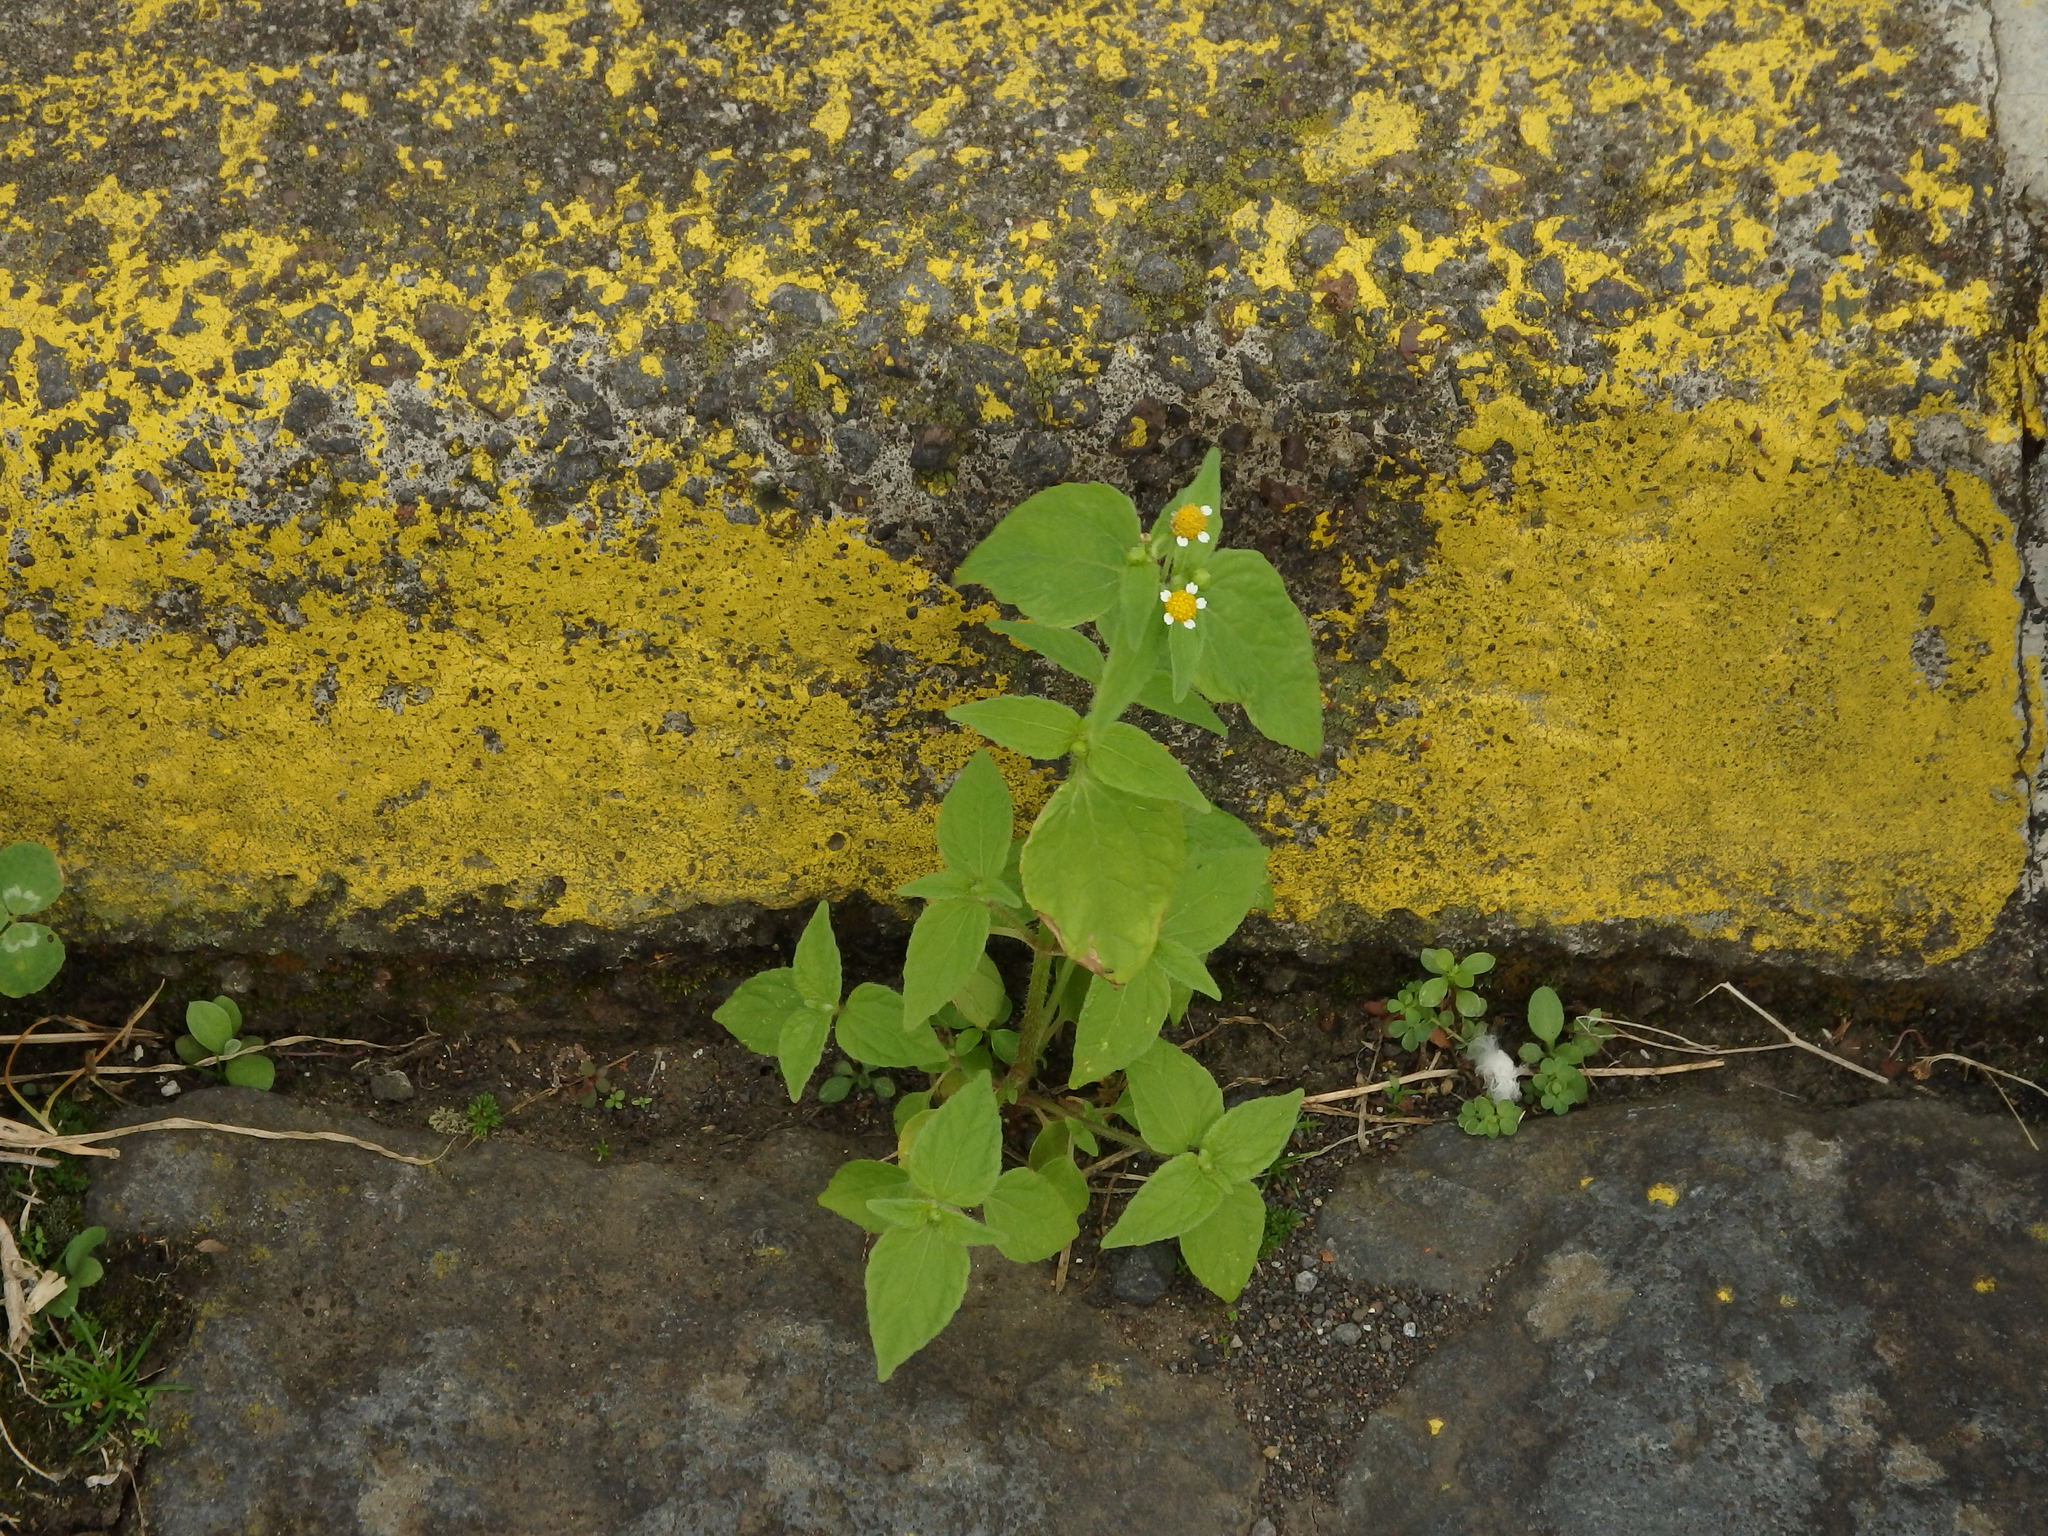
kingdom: Plantae
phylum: Tracheophyta
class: Magnoliopsida
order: Asterales
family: Asteraceae
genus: Galinsoga
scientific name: Galinsoga parviflora
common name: Gallant soldier
